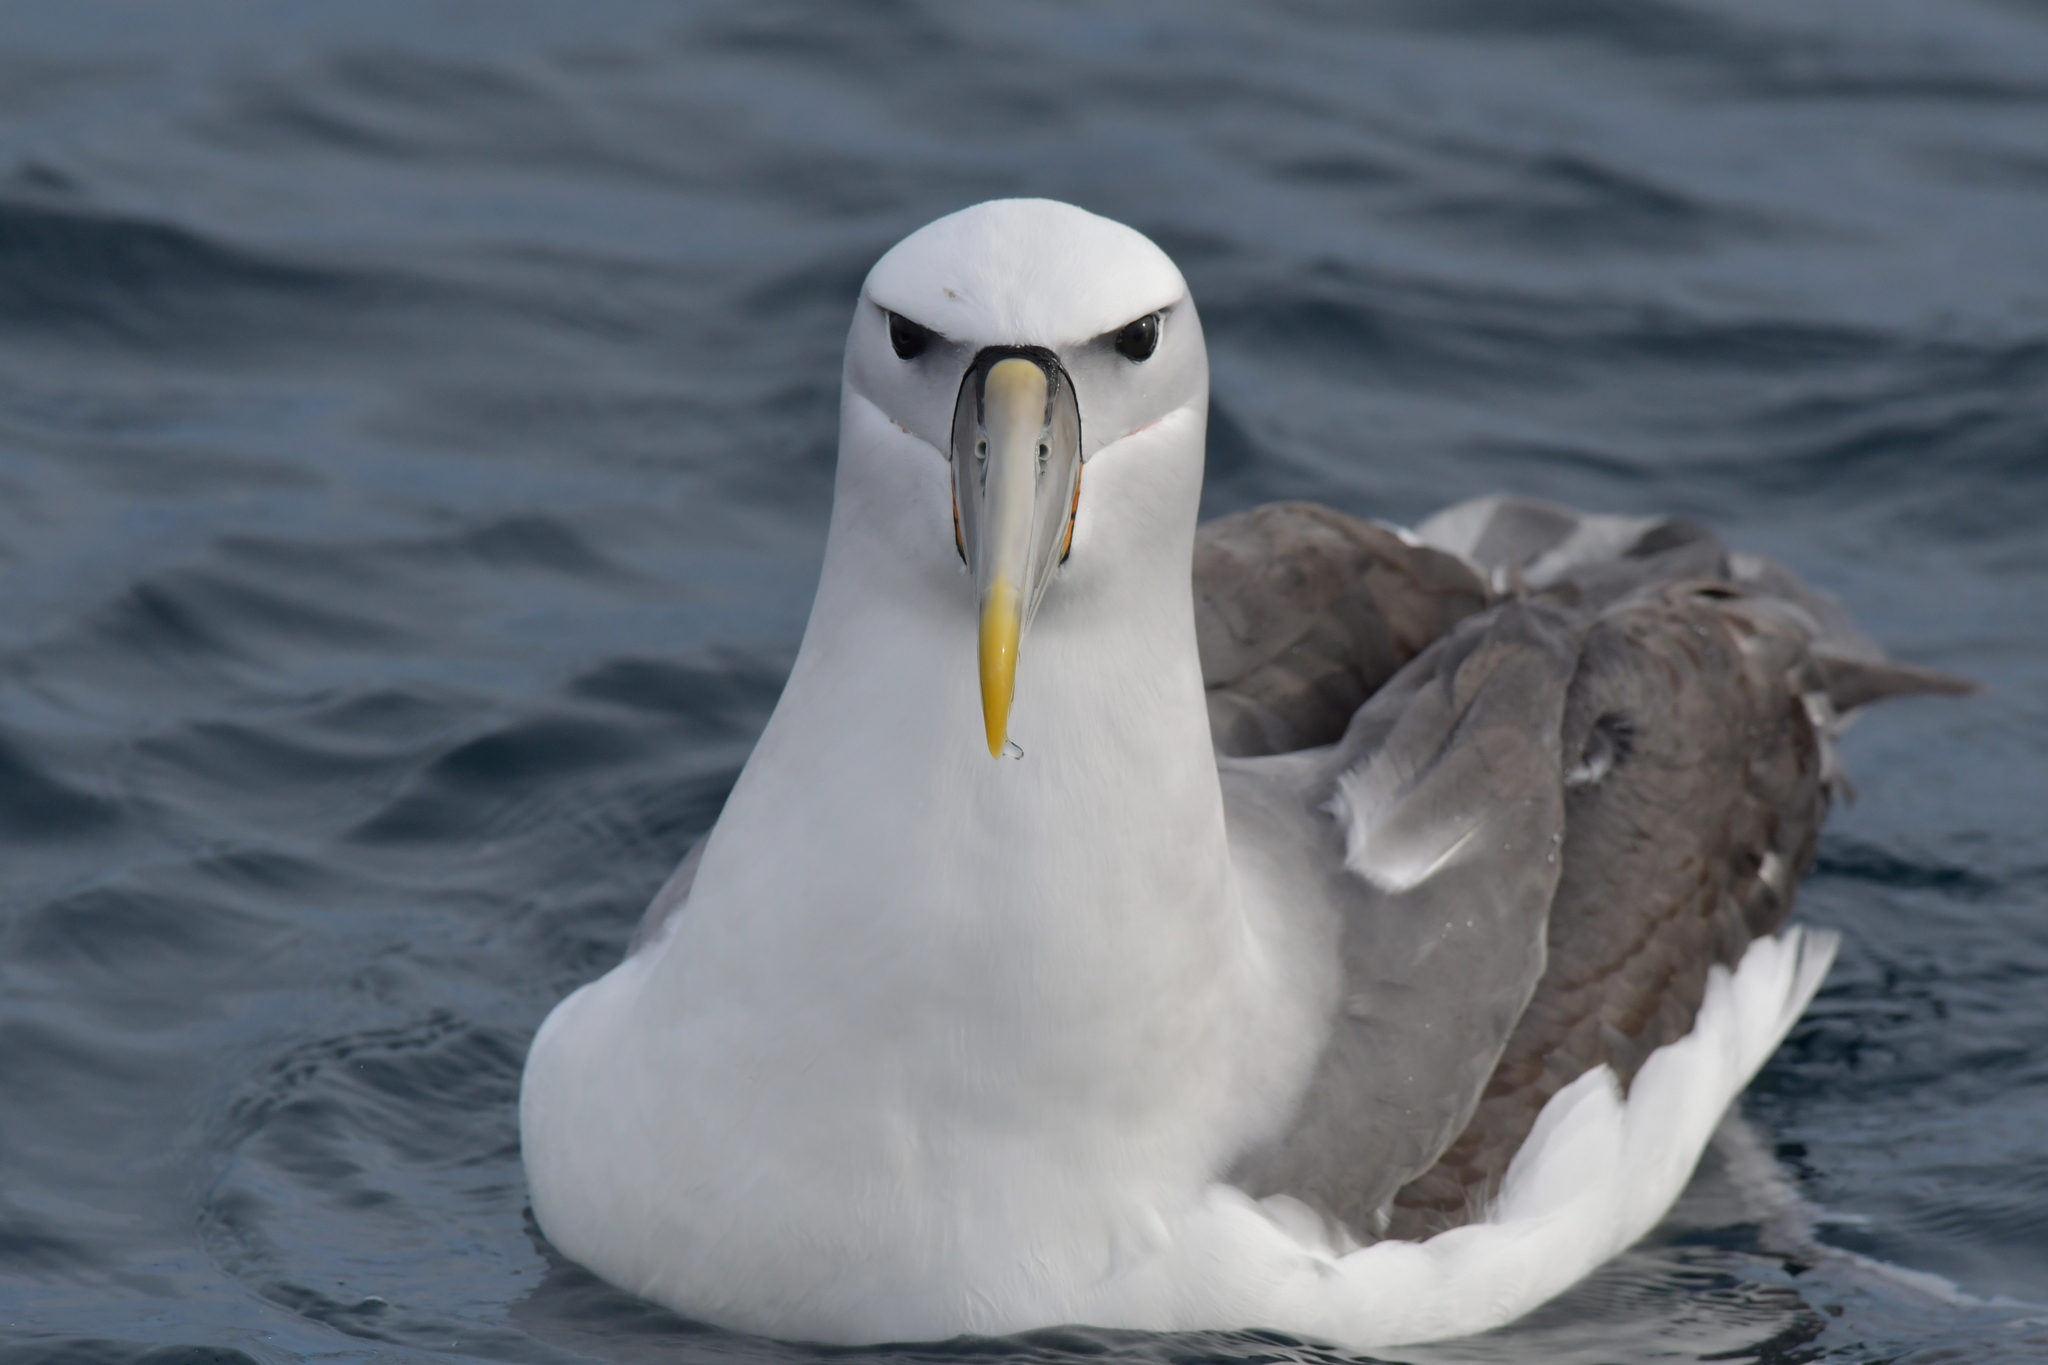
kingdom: Animalia
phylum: Chordata
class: Aves
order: Procellariiformes
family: Diomedeidae
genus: Thalassarche
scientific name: Thalassarche cauta
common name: Shy albatross
